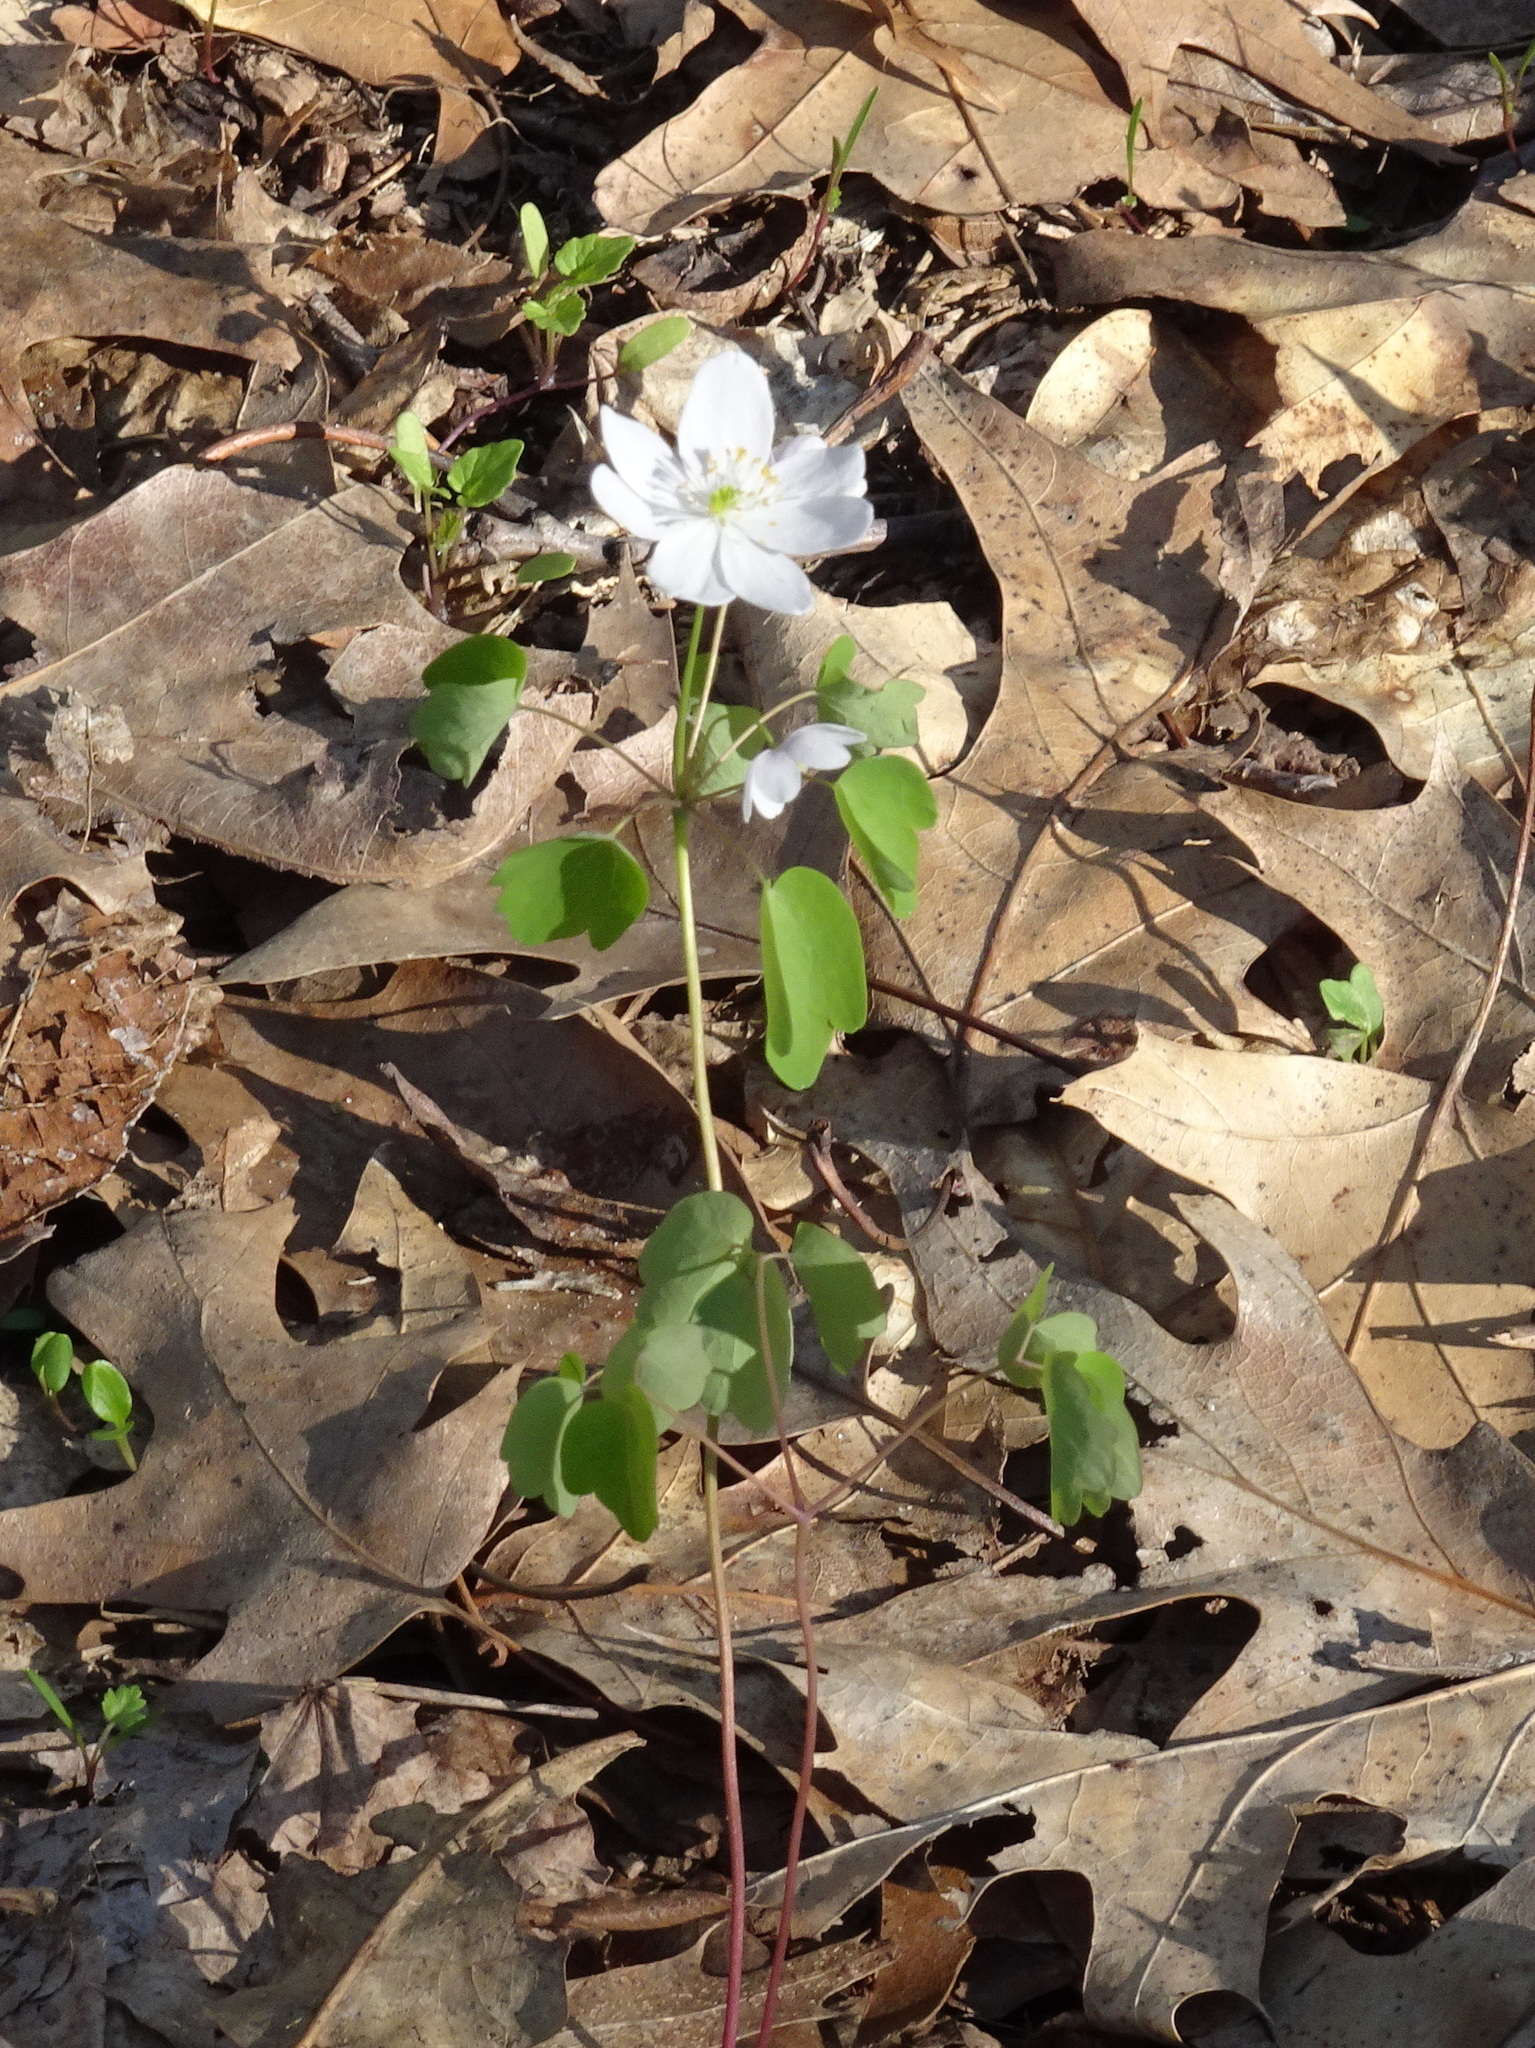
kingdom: Plantae
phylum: Tracheophyta
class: Magnoliopsida
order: Ranunculales
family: Ranunculaceae
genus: Thalictrum
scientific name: Thalictrum thalictroides
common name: Rue-anemone
